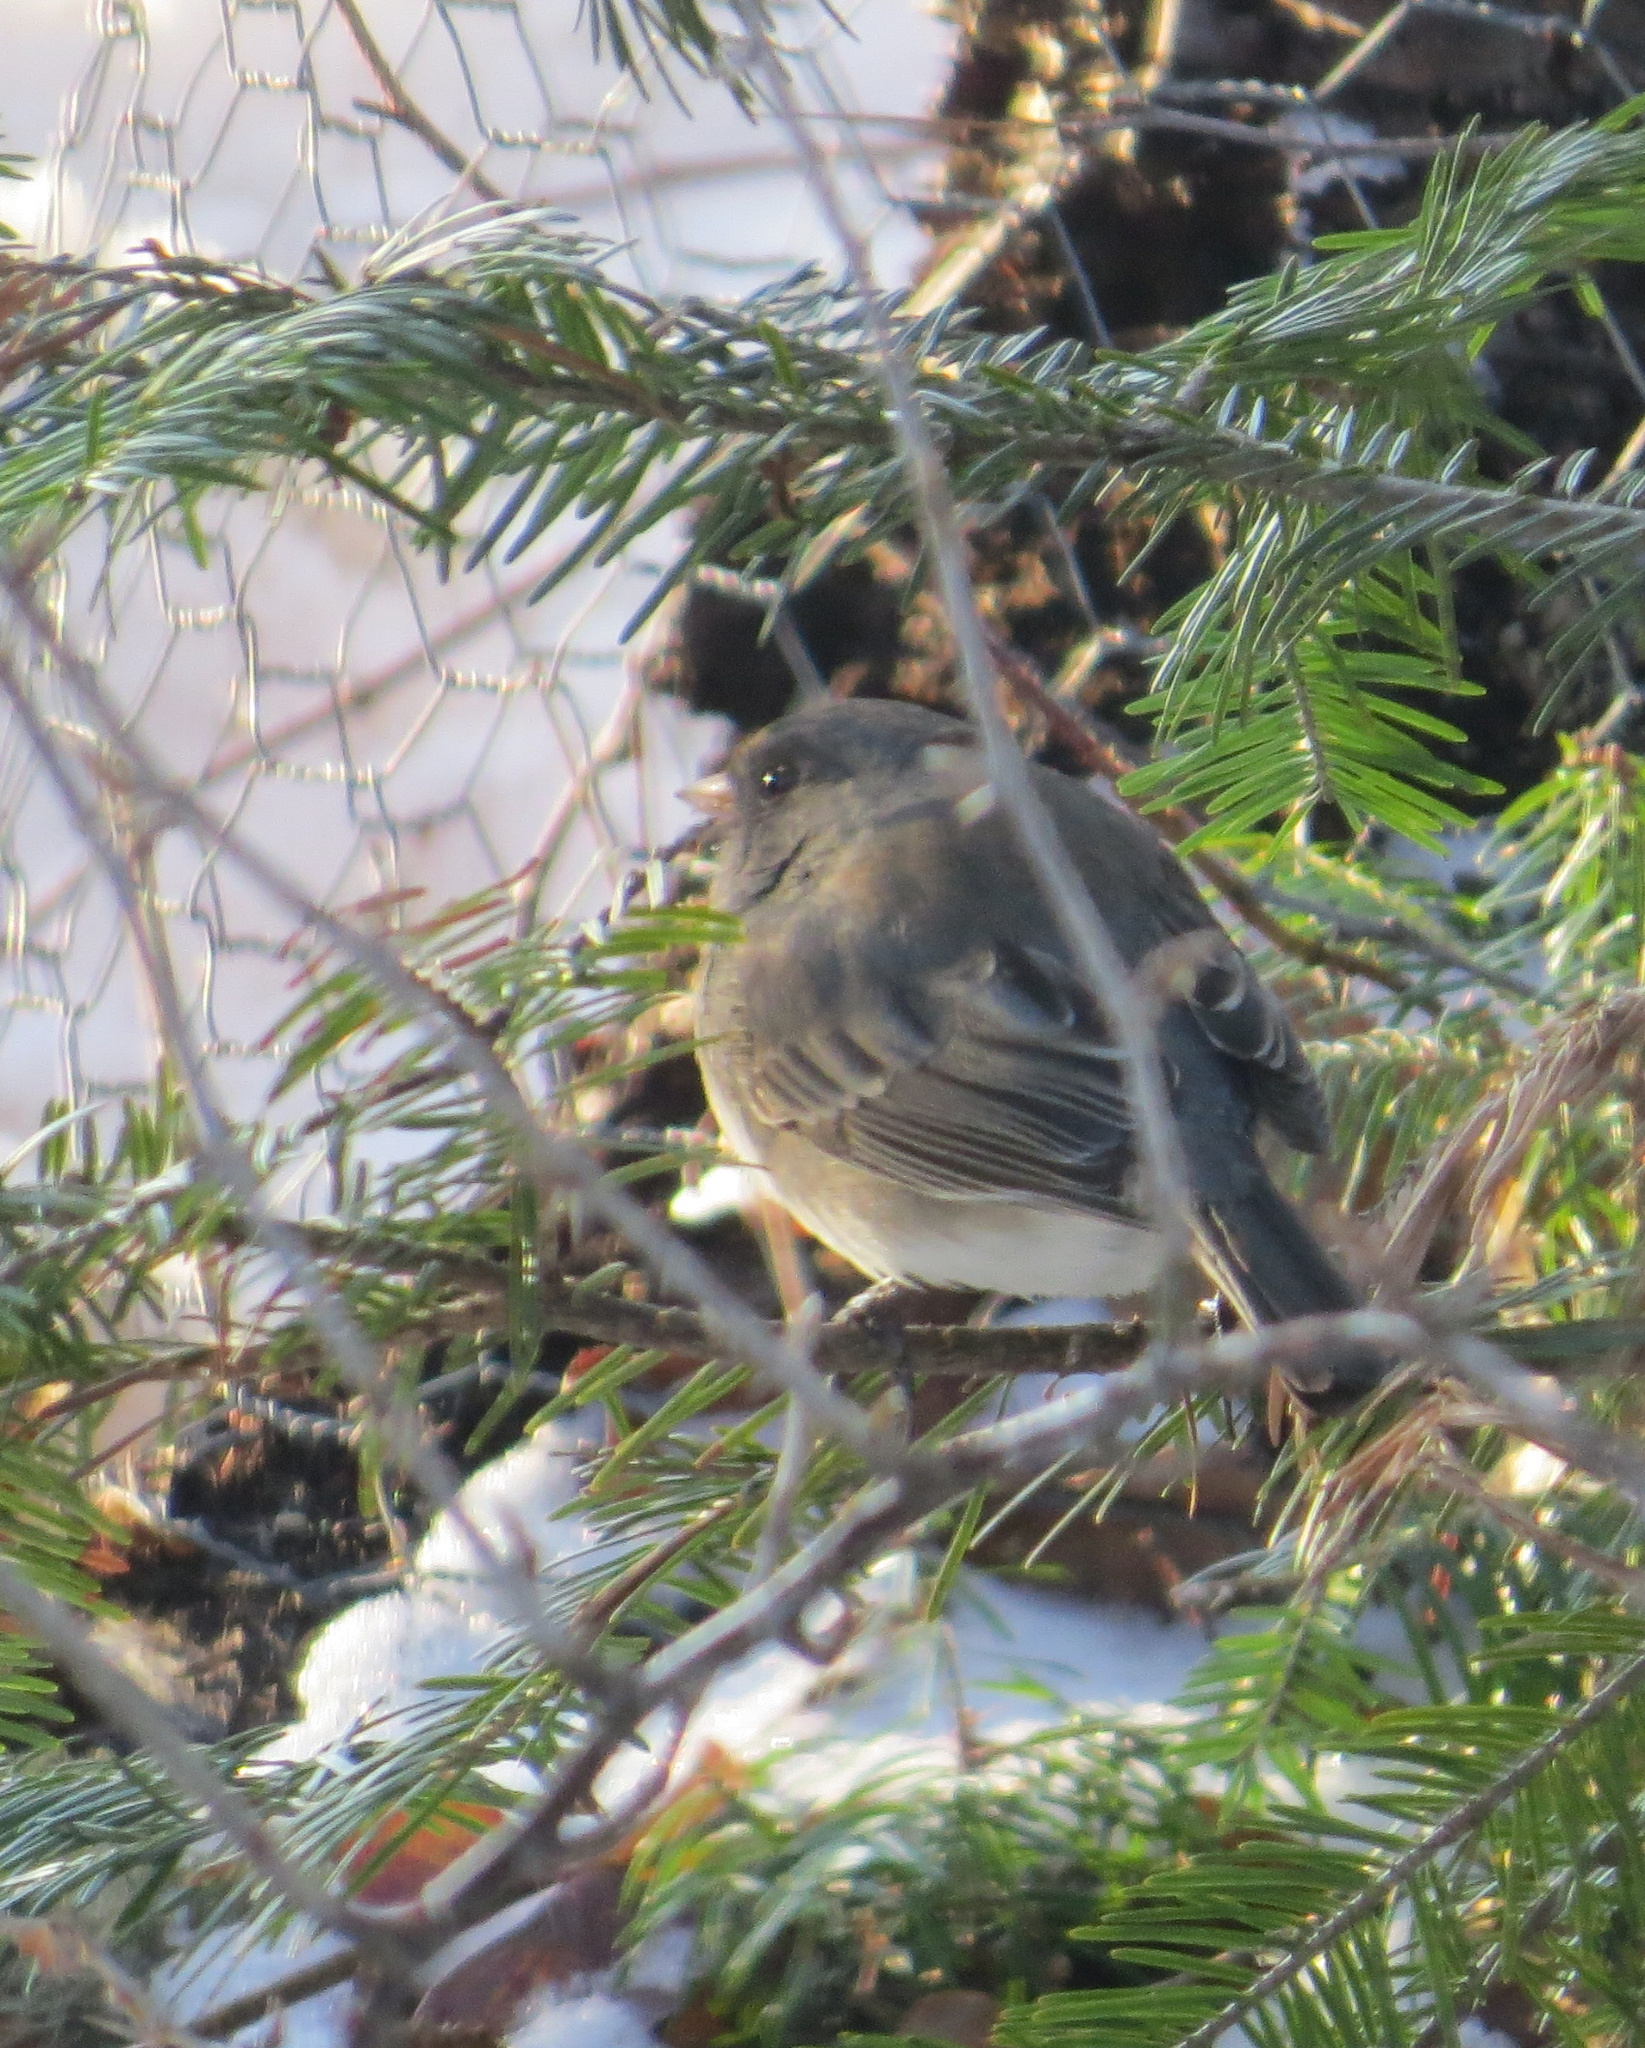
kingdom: Animalia
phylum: Chordata
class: Aves
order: Passeriformes
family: Passerellidae
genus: Junco
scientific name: Junco hyemalis
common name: Dark-eyed junco
